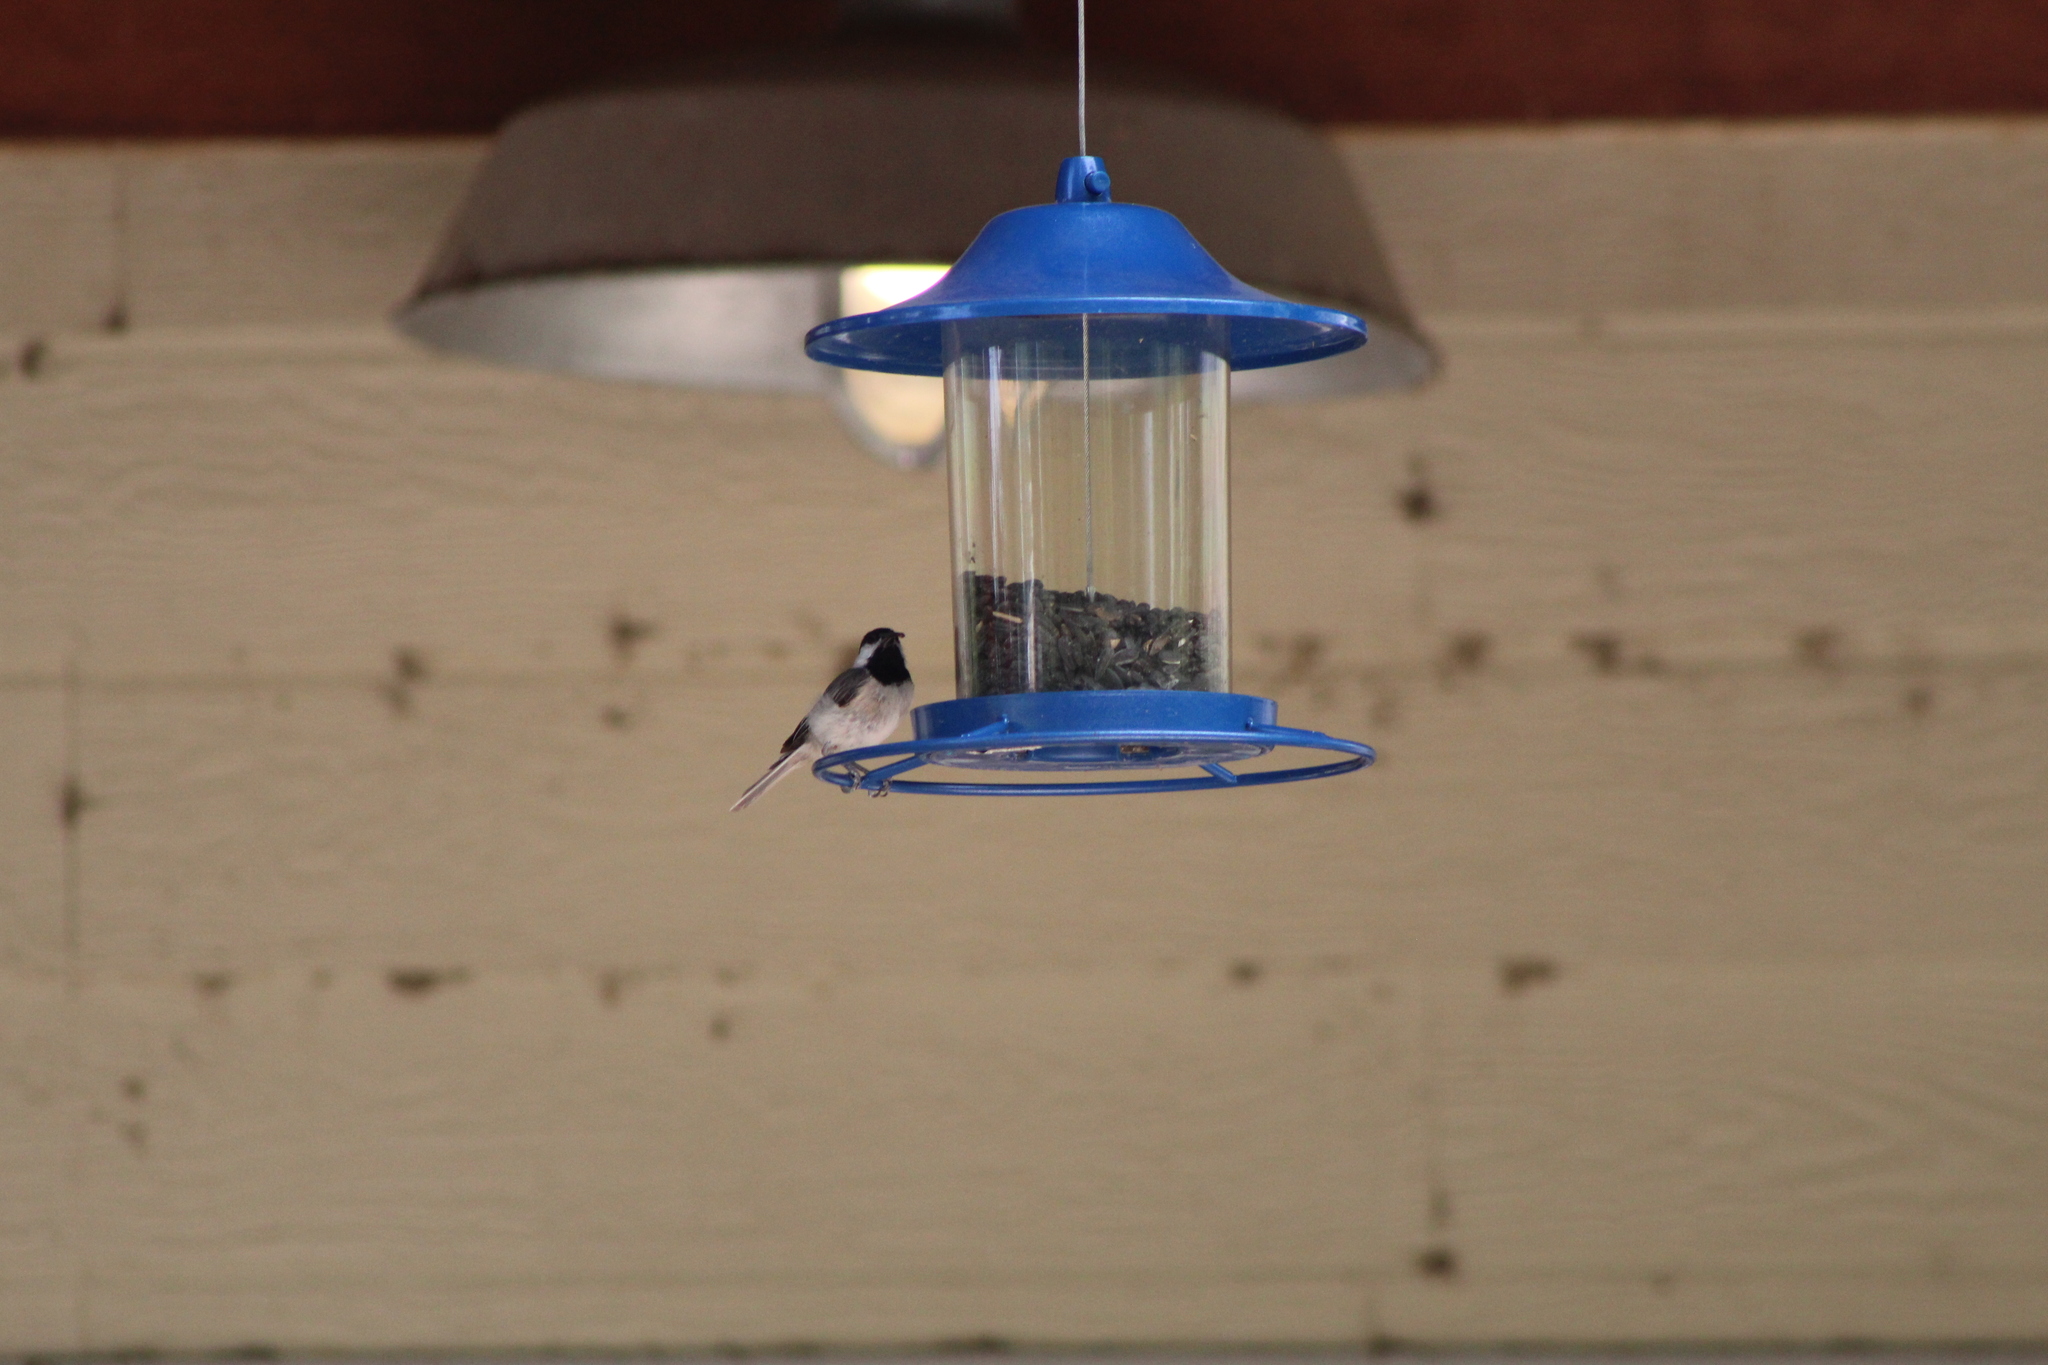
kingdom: Animalia
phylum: Chordata
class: Aves
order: Passeriformes
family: Paridae
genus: Poecile
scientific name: Poecile carolinensis
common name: Carolina chickadee
